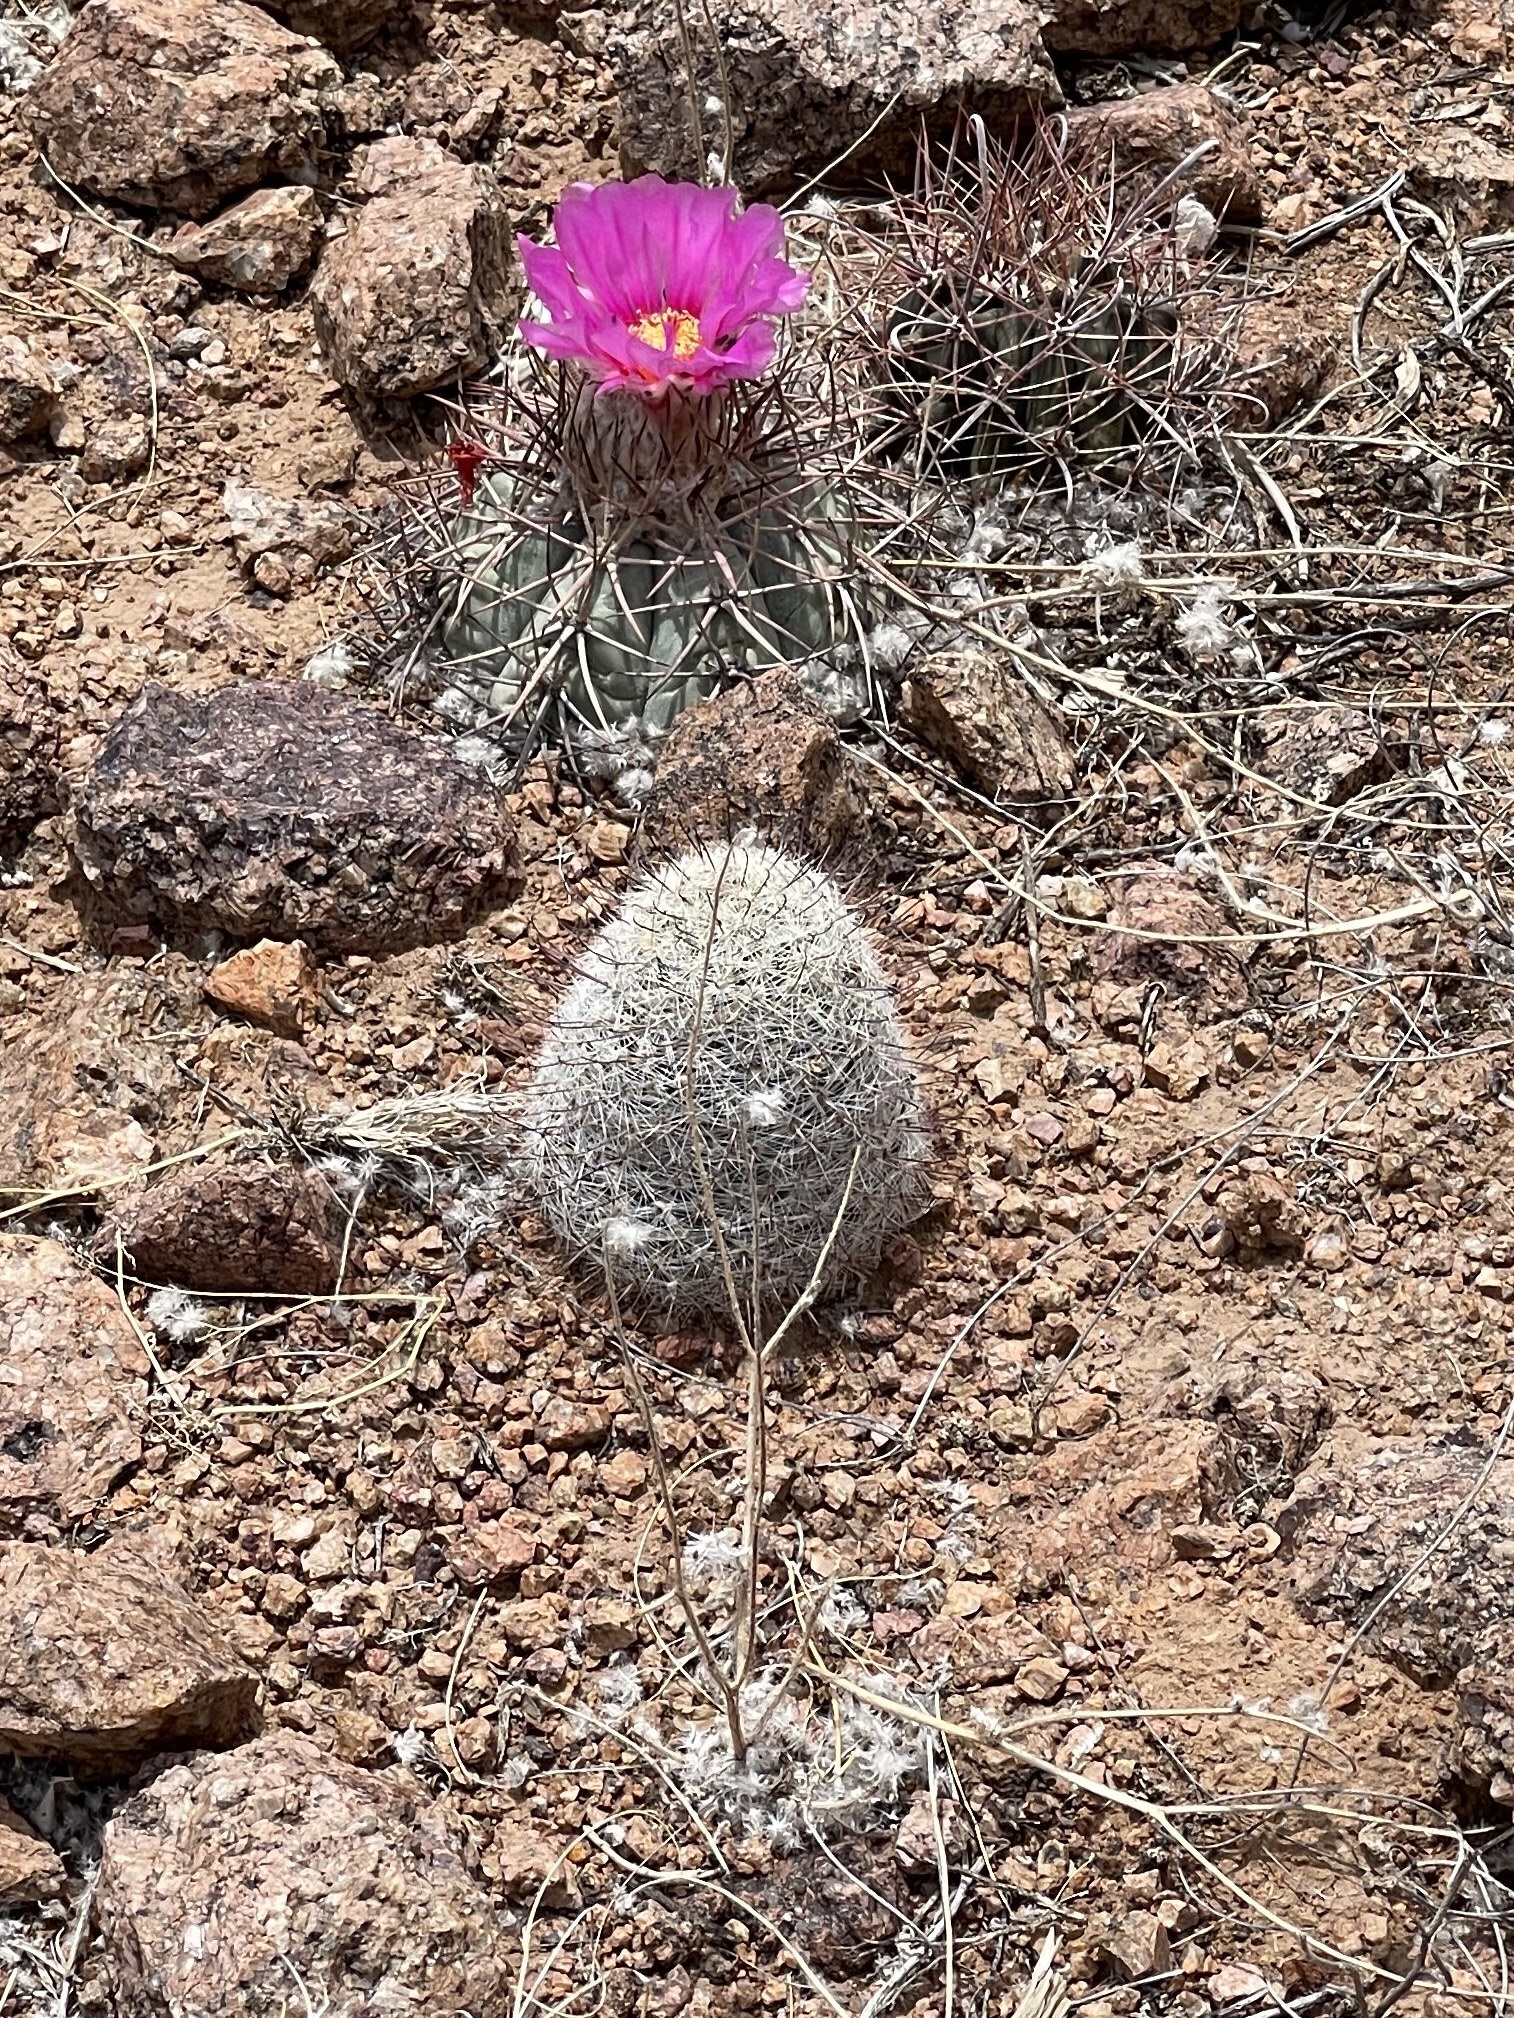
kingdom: Plantae
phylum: Tracheophyta
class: Magnoliopsida
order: Caryophyllales
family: Cactaceae
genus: Cochemiea
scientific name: Cochemiea grahamii
